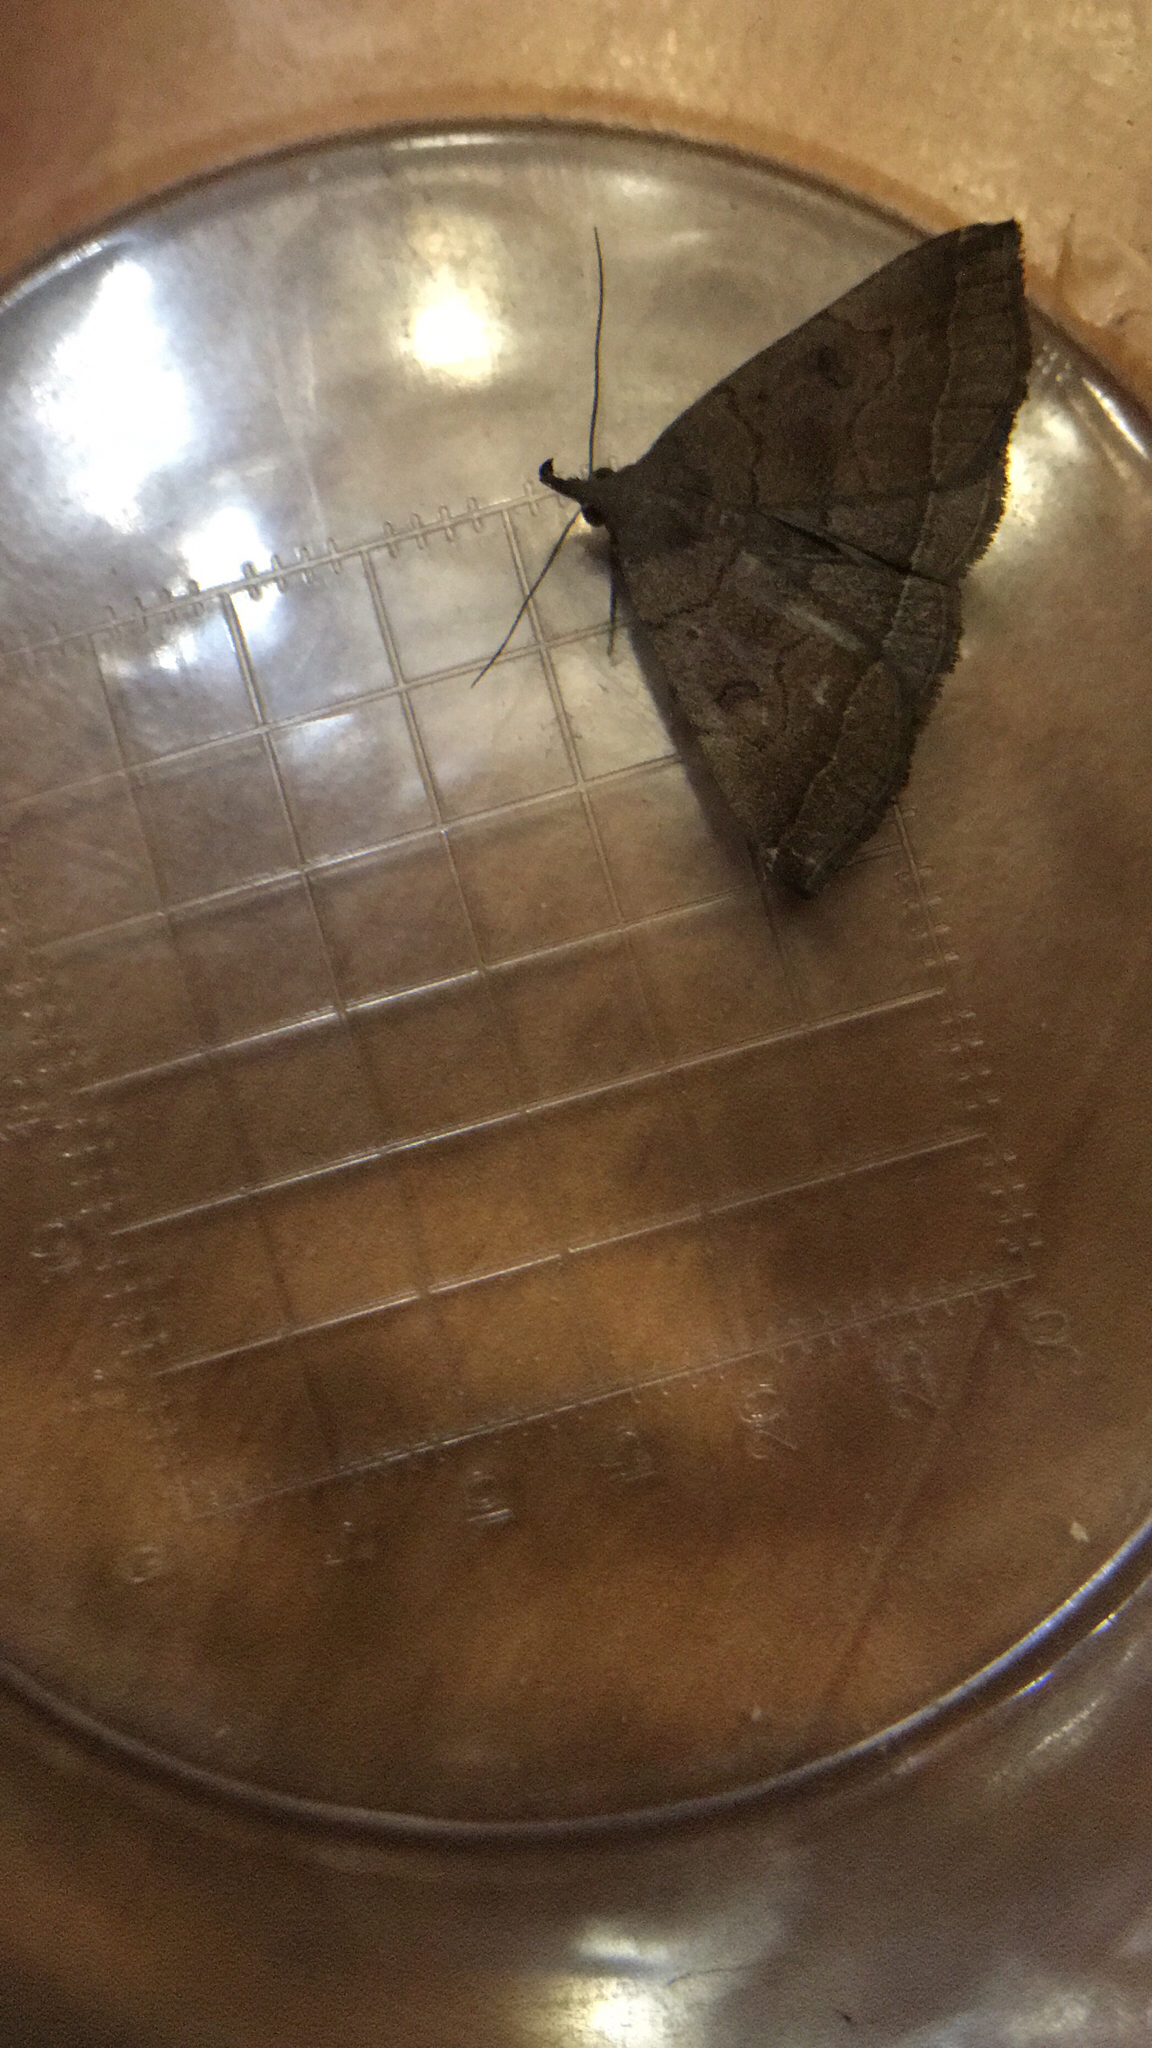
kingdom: Animalia
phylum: Arthropoda
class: Insecta
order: Lepidoptera
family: Erebidae
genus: Pechipogo
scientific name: Pechipogo plumigeralis
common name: Plumed fan-foot
